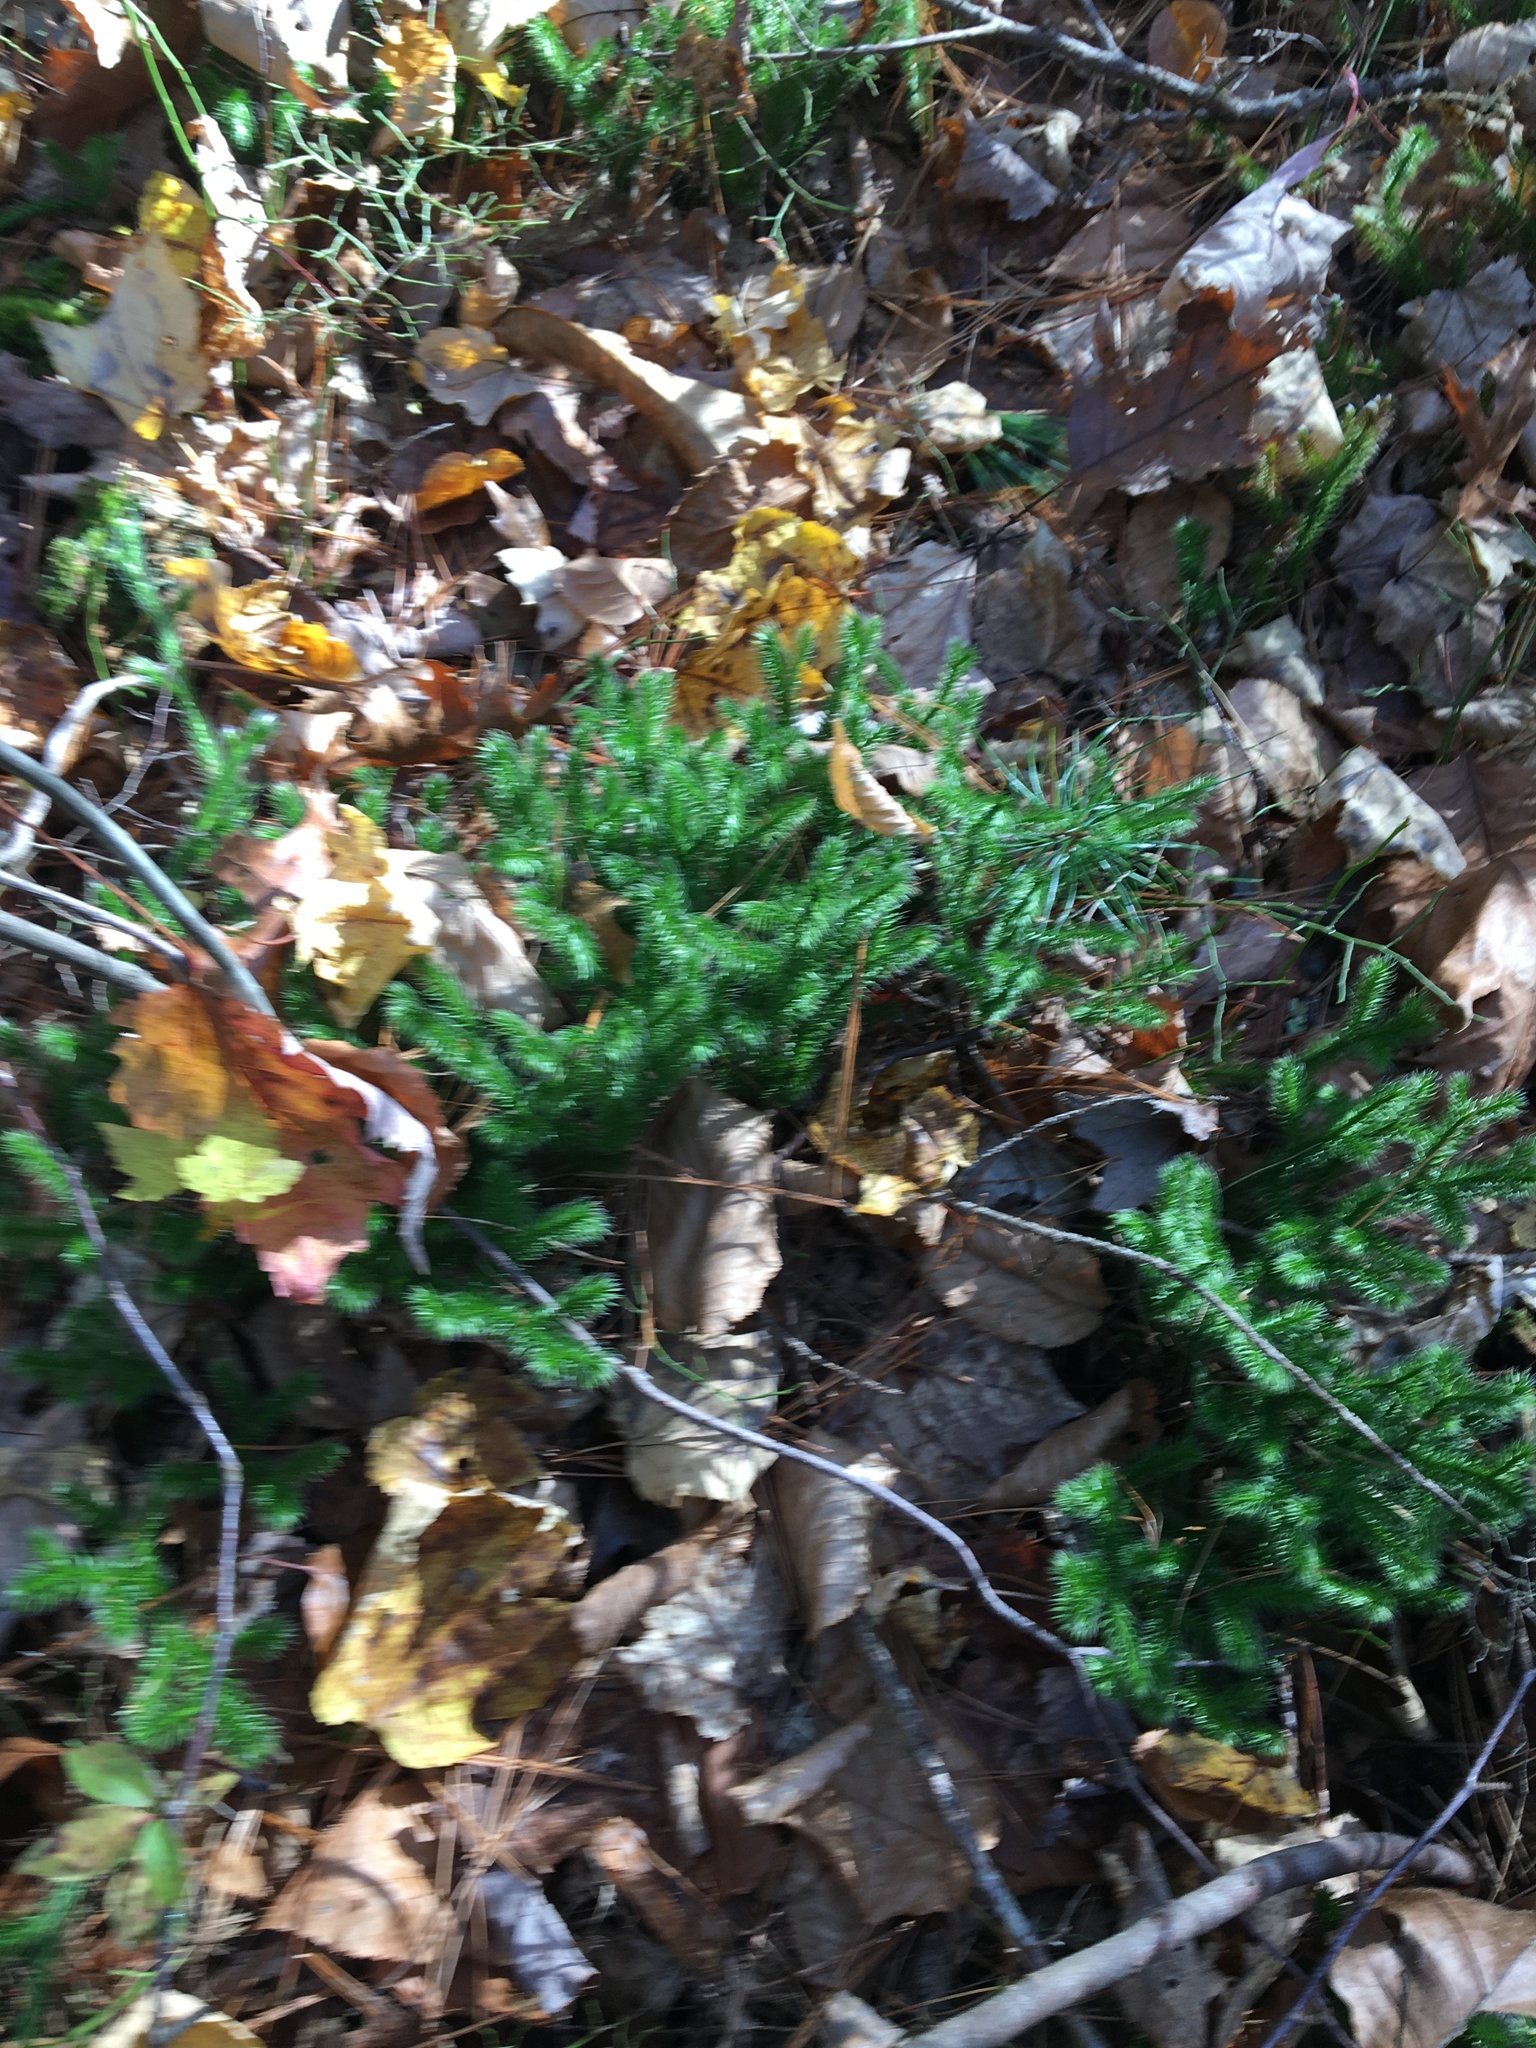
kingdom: Plantae
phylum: Tracheophyta
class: Lycopodiopsida
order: Lycopodiales
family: Lycopodiaceae
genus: Lycopodium
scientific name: Lycopodium clavatum
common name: Stag's-horn clubmoss
